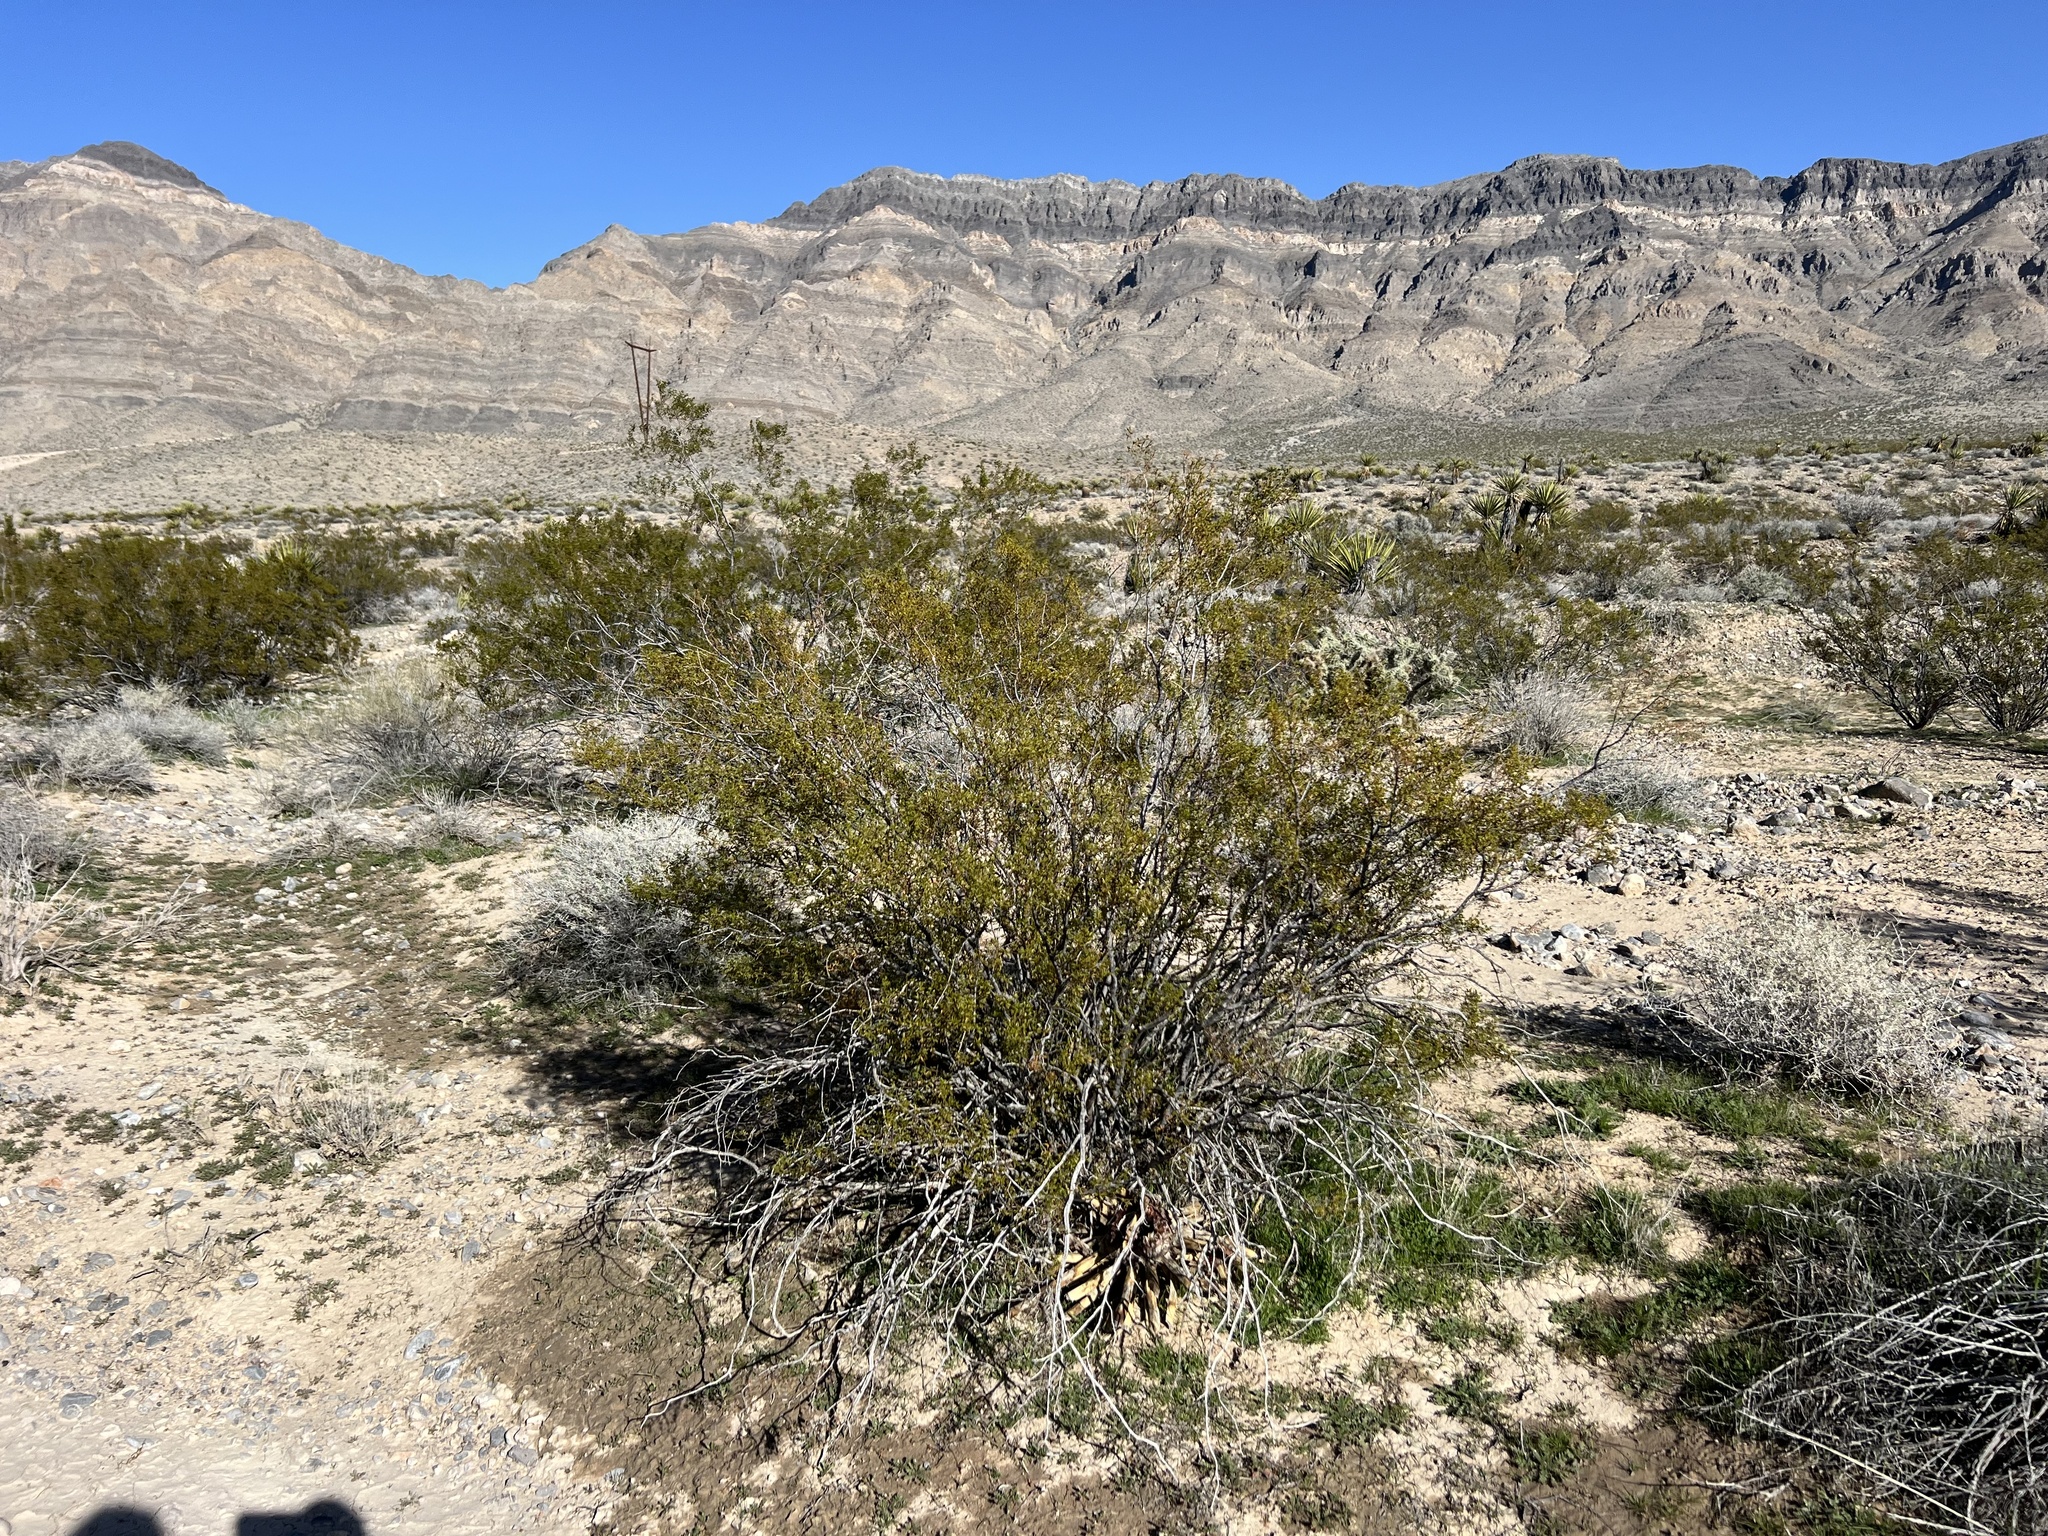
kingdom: Plantae
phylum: Tracheophyta
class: Magnoliopsida
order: Zygophyllales
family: Zygophyllaceae
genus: Larrea
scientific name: Larrea tridentata
